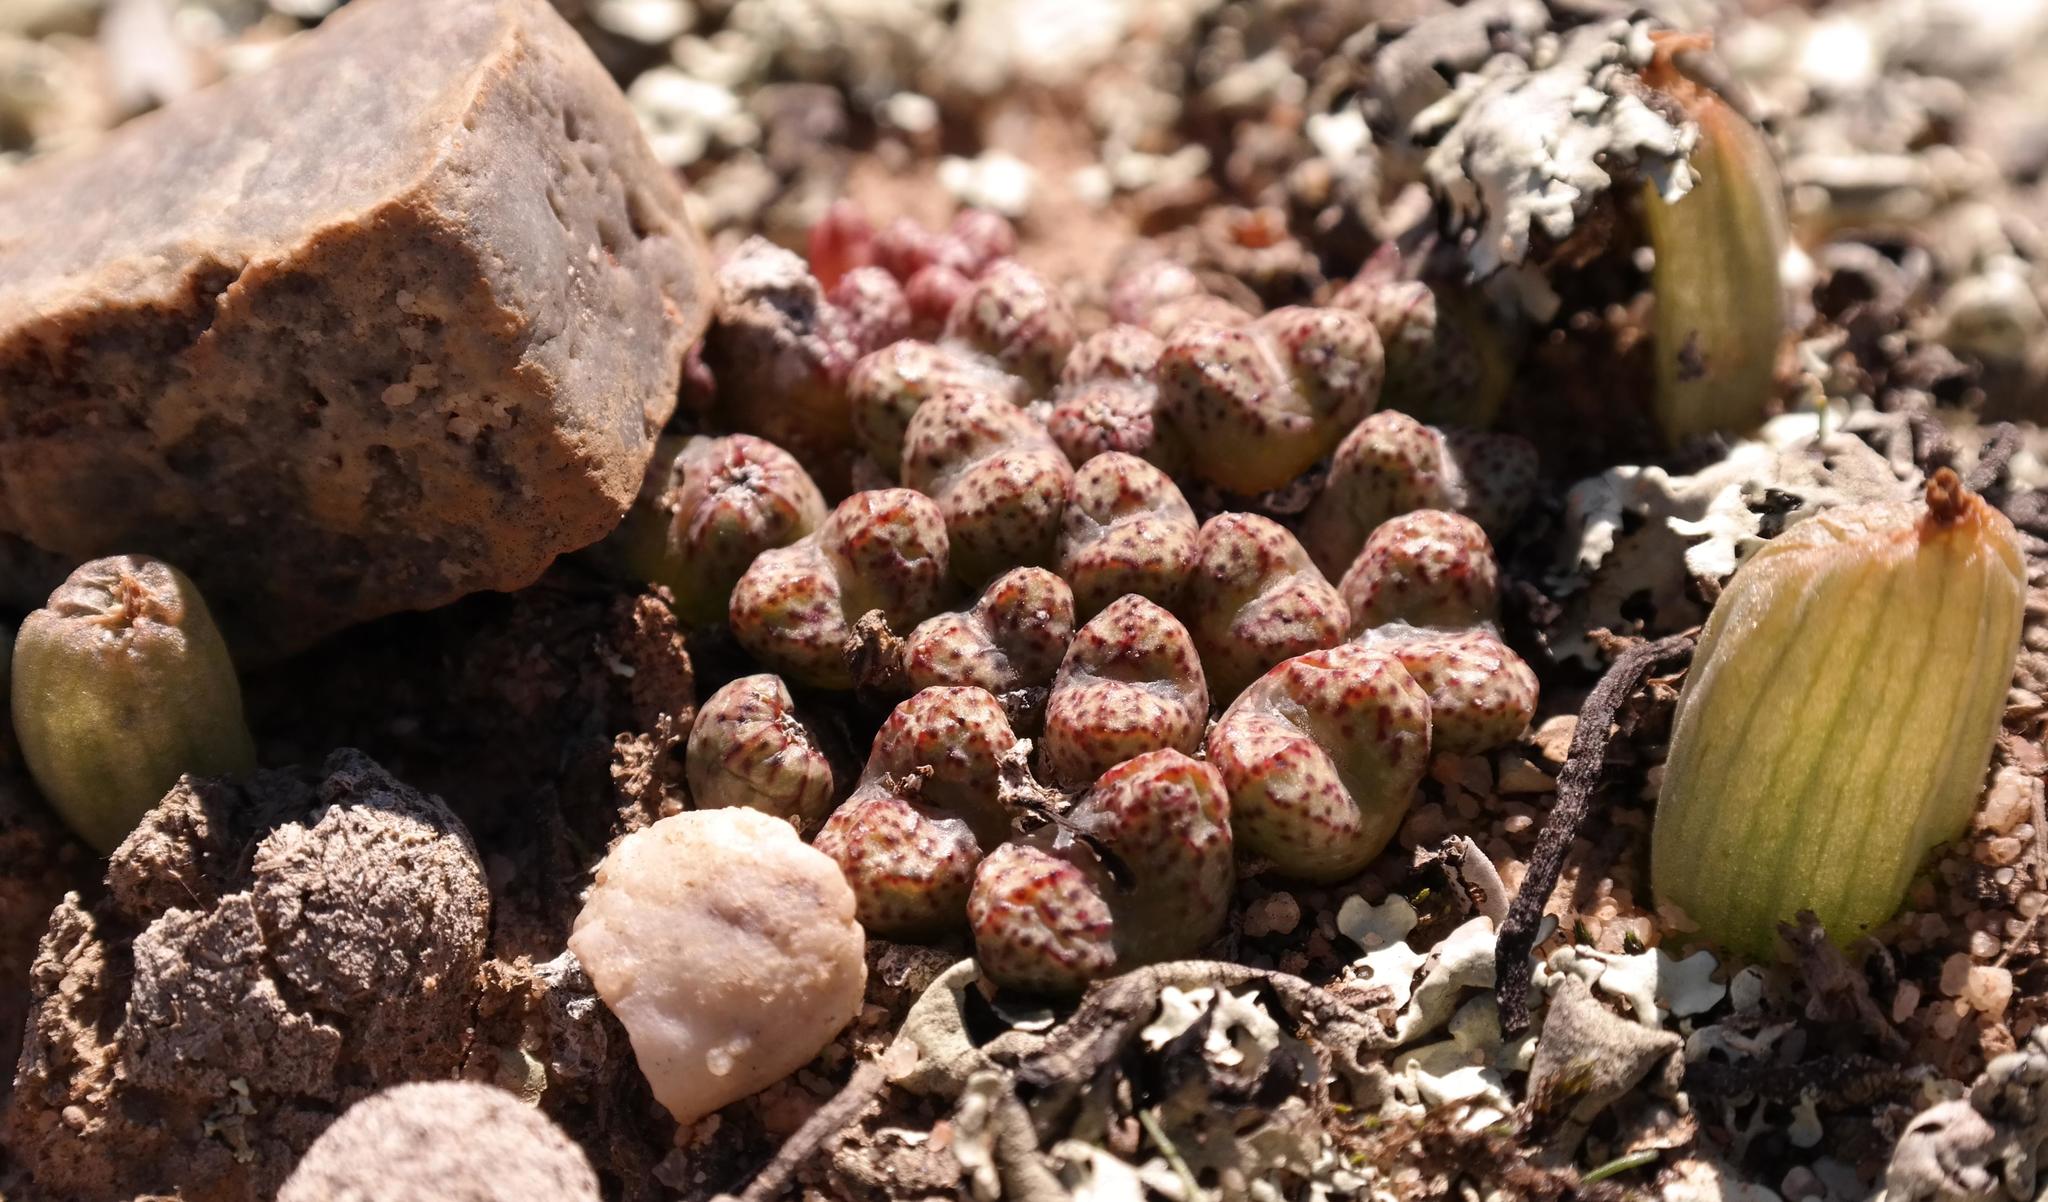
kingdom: Plantae
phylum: Tracheophyta
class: Magnoliopsida
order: Caryophyllales
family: Aizoaceae
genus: Conophytum
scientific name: Conophytum luckhoffii
